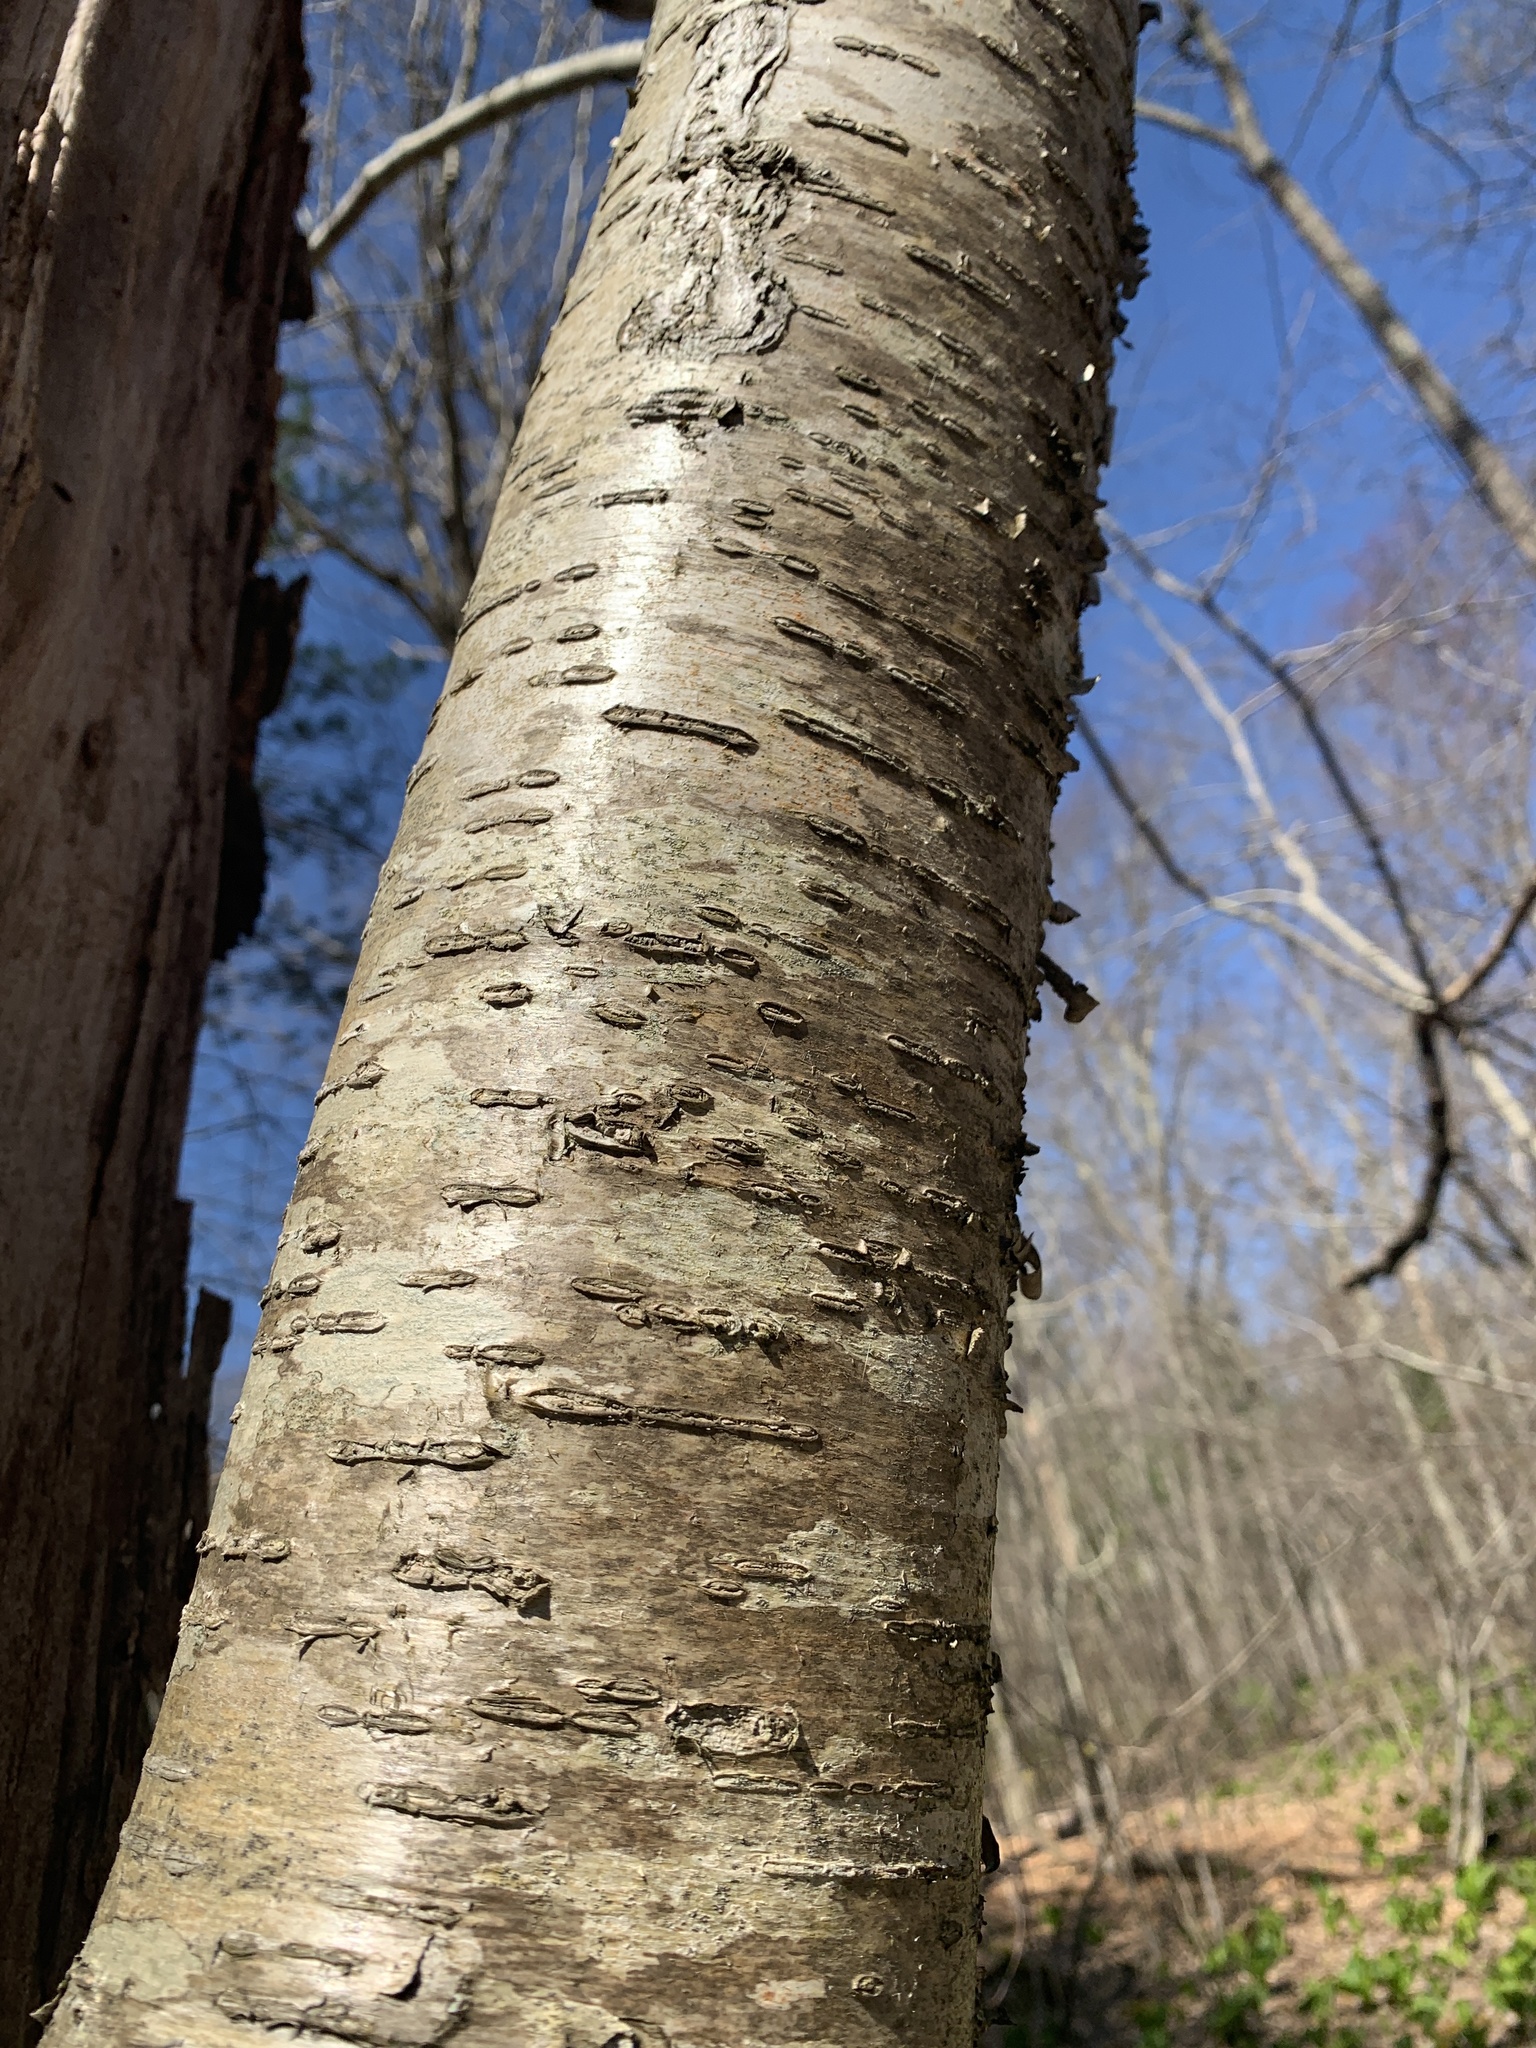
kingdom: Plantae
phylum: Tracheophyta
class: Magnoliopsida
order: Fagales
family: Betulaceae
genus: Betula
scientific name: Betula alleghaniensis
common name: Yellow birch
